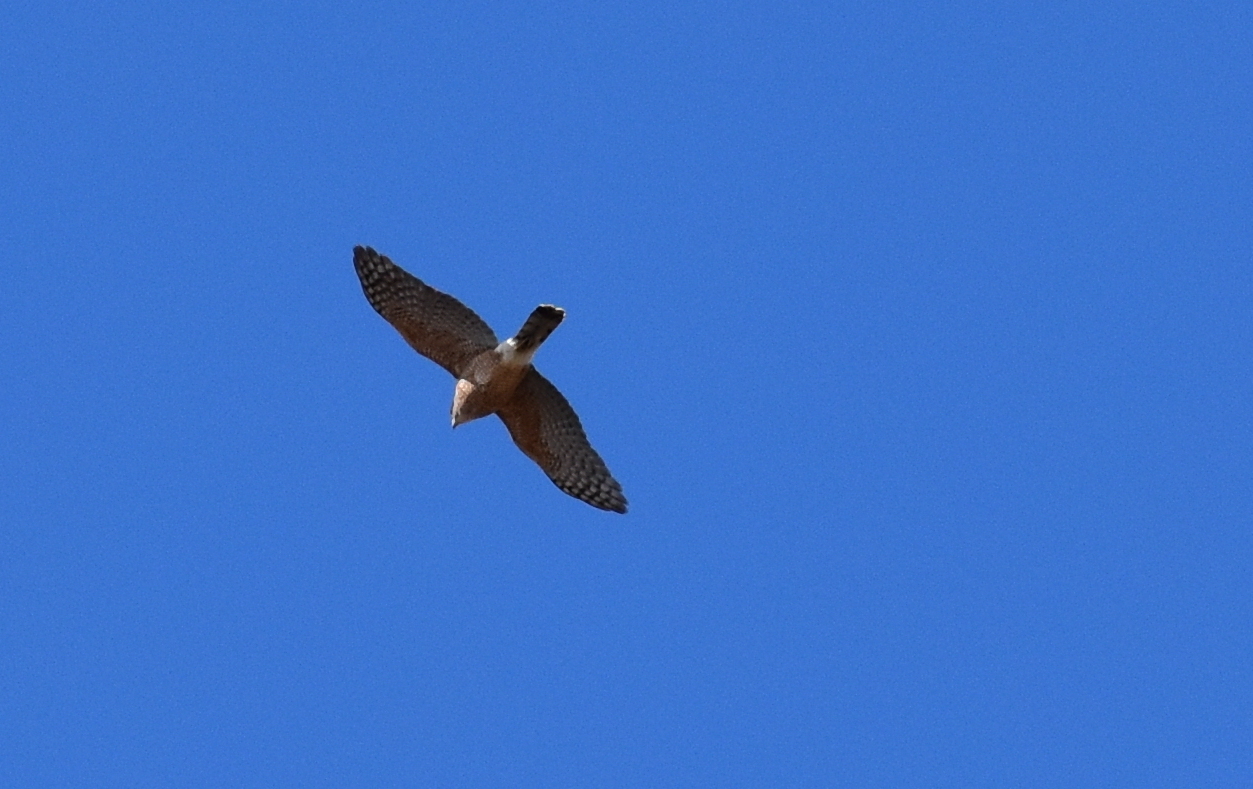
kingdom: Animalia
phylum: Chordata
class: Aves
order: Accipitriformes
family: Accipitridae
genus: Accipiter
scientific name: Accipiter cooperii
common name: Cooper's hawk
